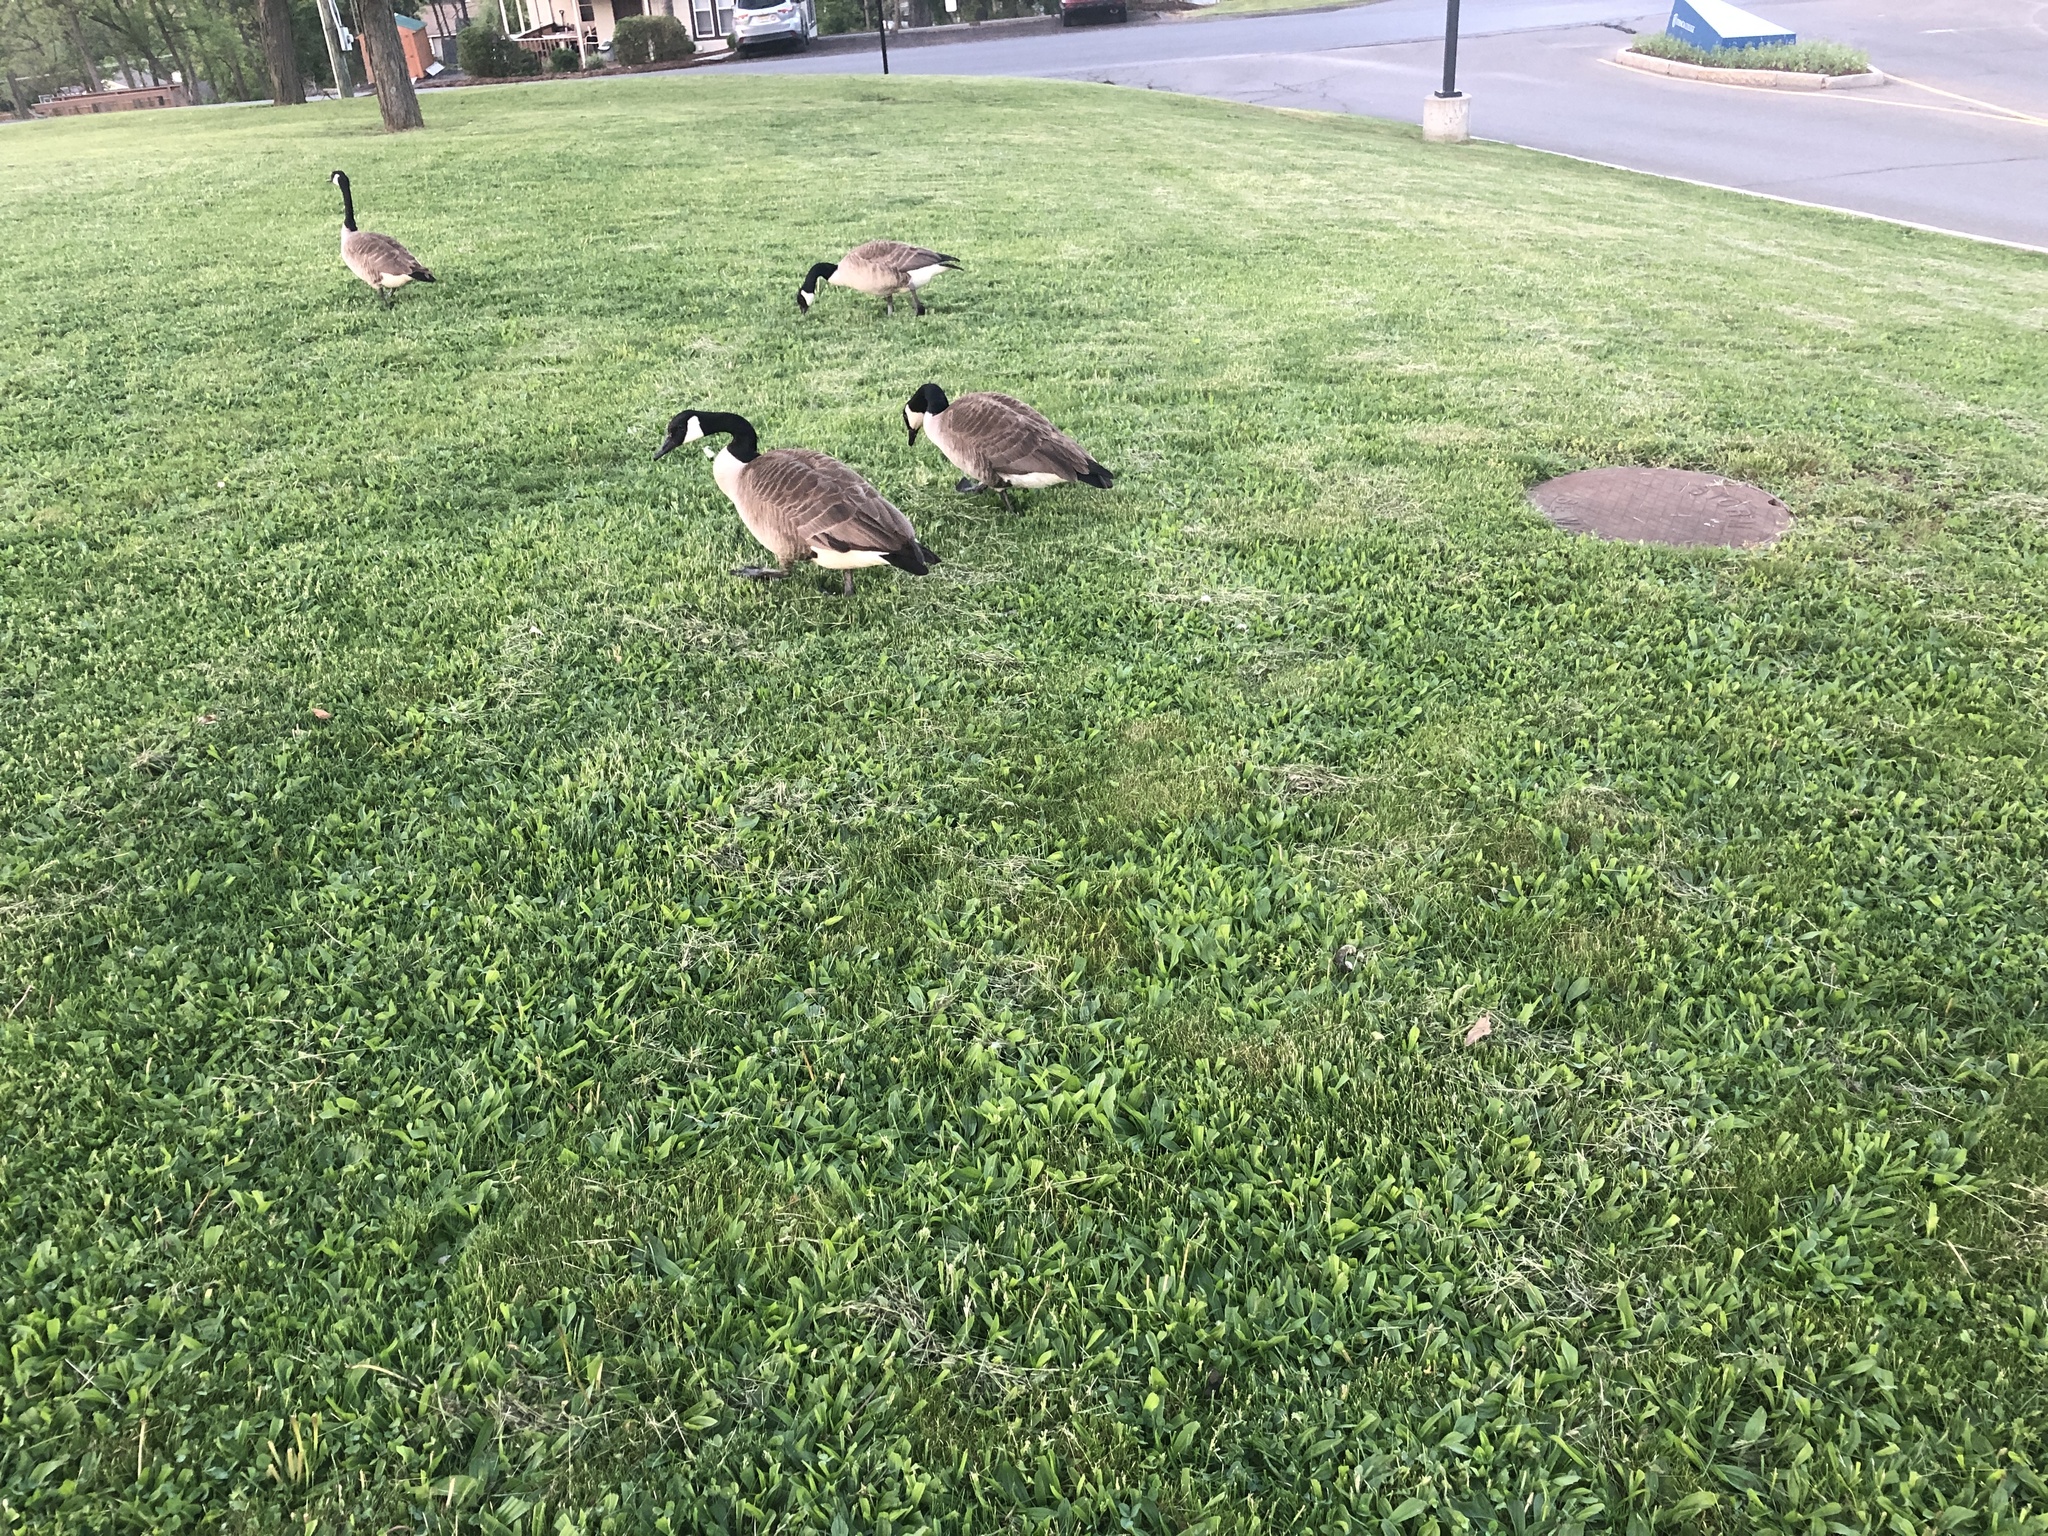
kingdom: Animalia
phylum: Chordata
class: Aves
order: Anseriformes
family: Anatidae
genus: Branta
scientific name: Branta canadensis
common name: Canada goose
